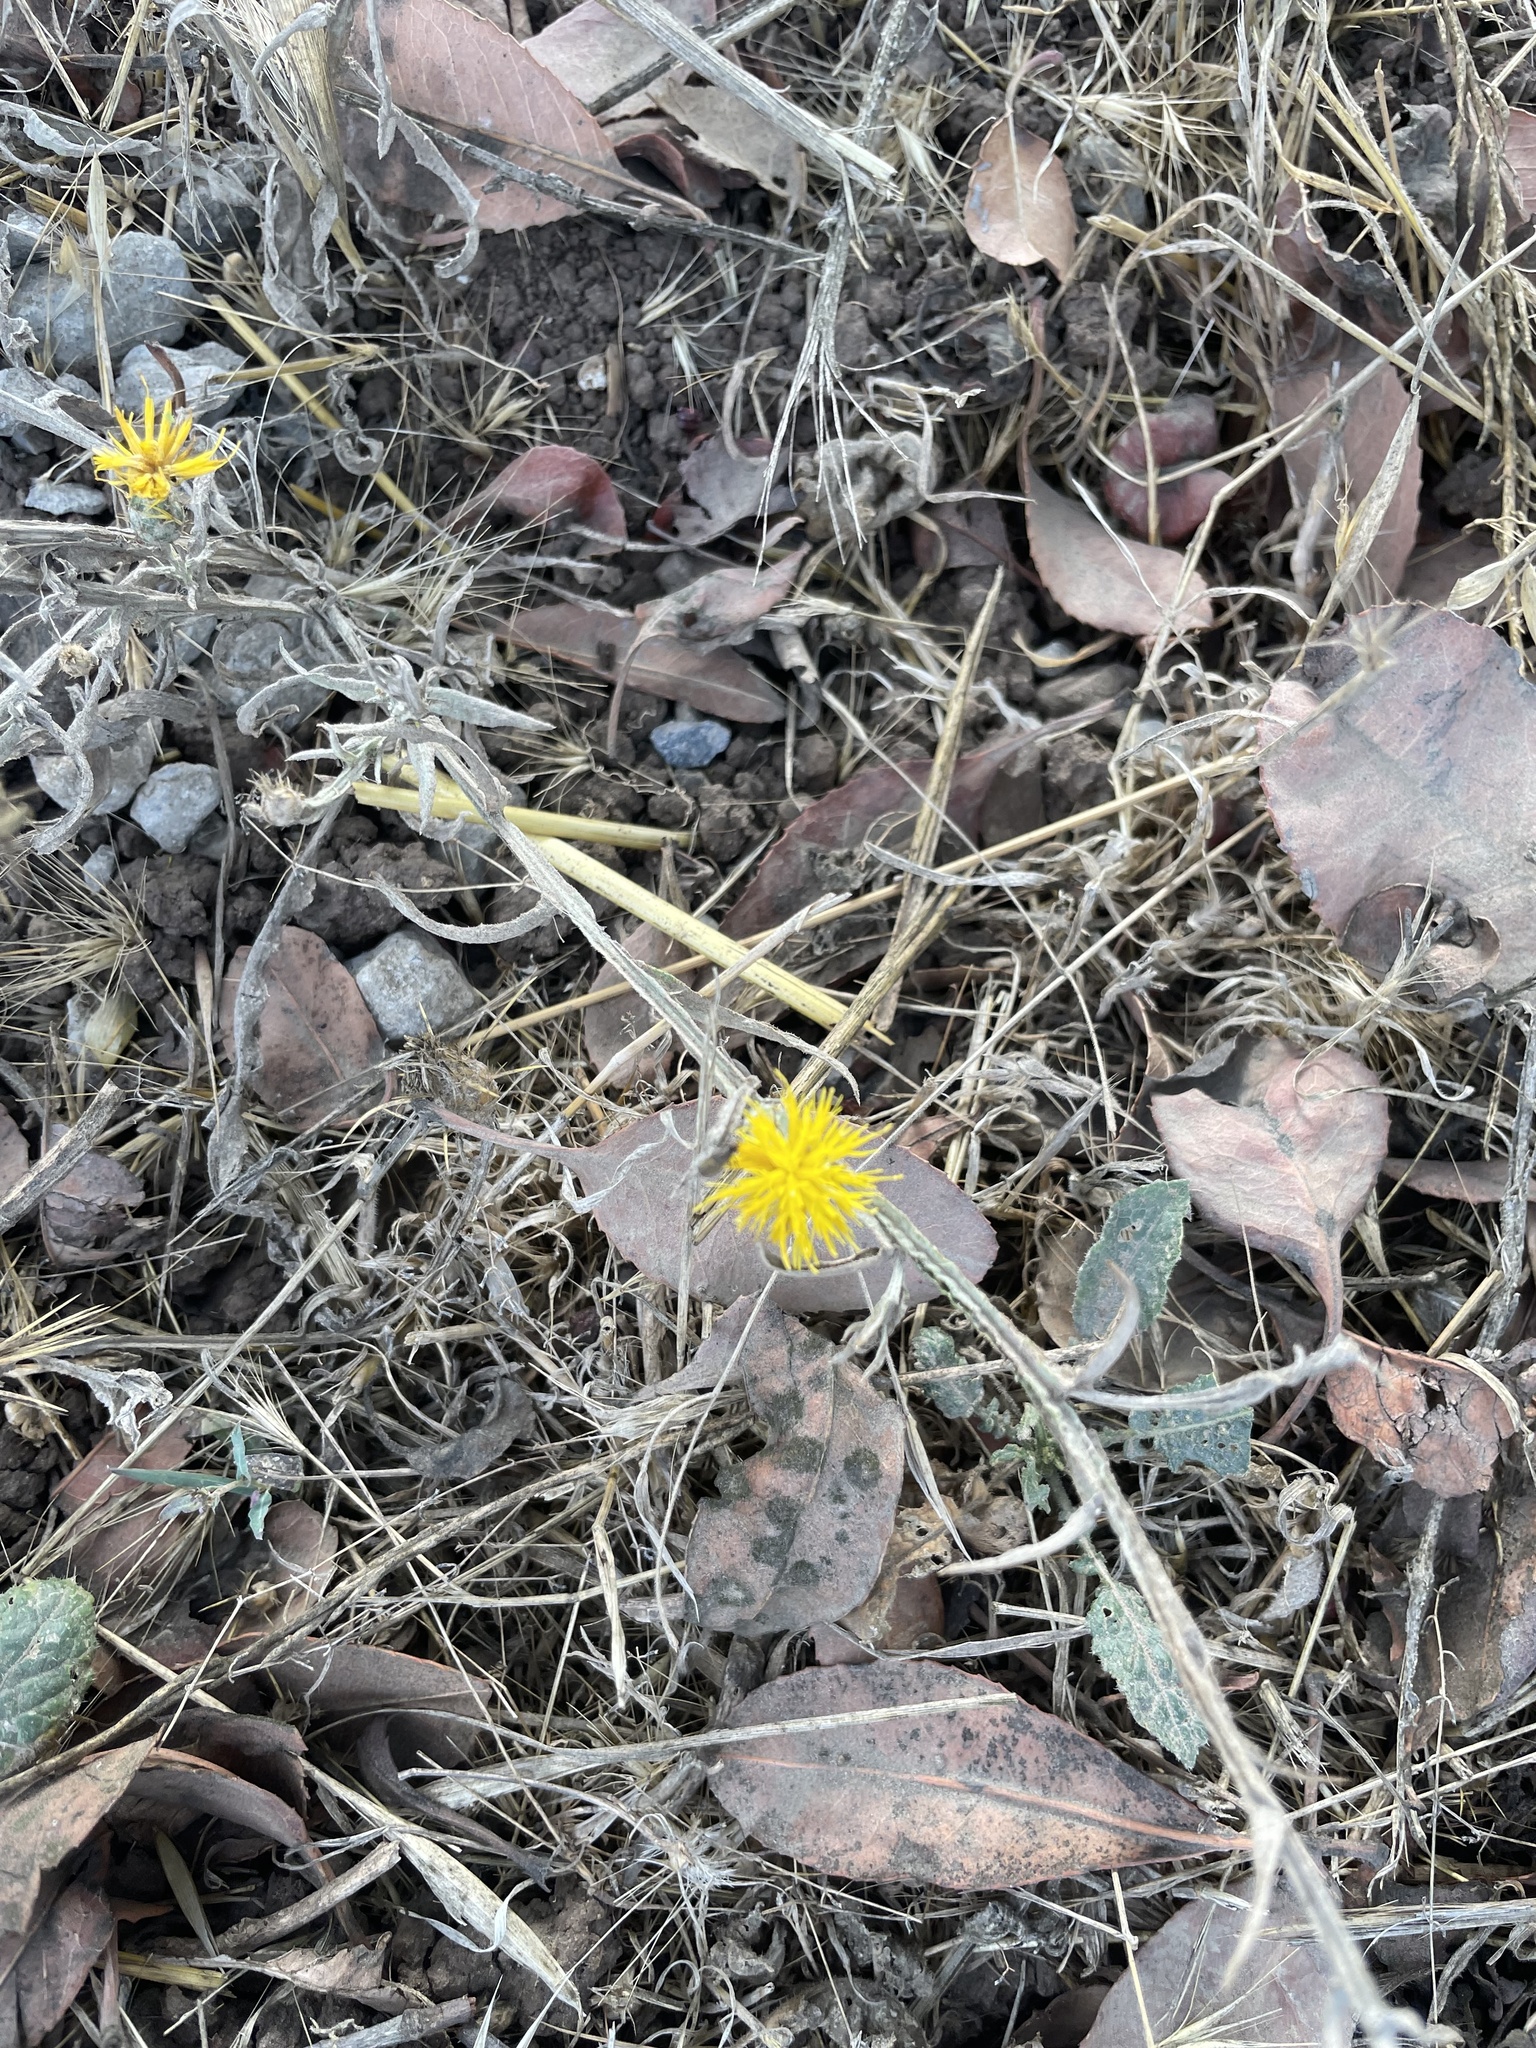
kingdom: Plantae
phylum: Tracheophyta
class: Magnoliopsida
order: Asterales
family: Asteraceae
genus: Centaurea
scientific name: Centaurea solstitialis
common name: Yellow star-thistle
